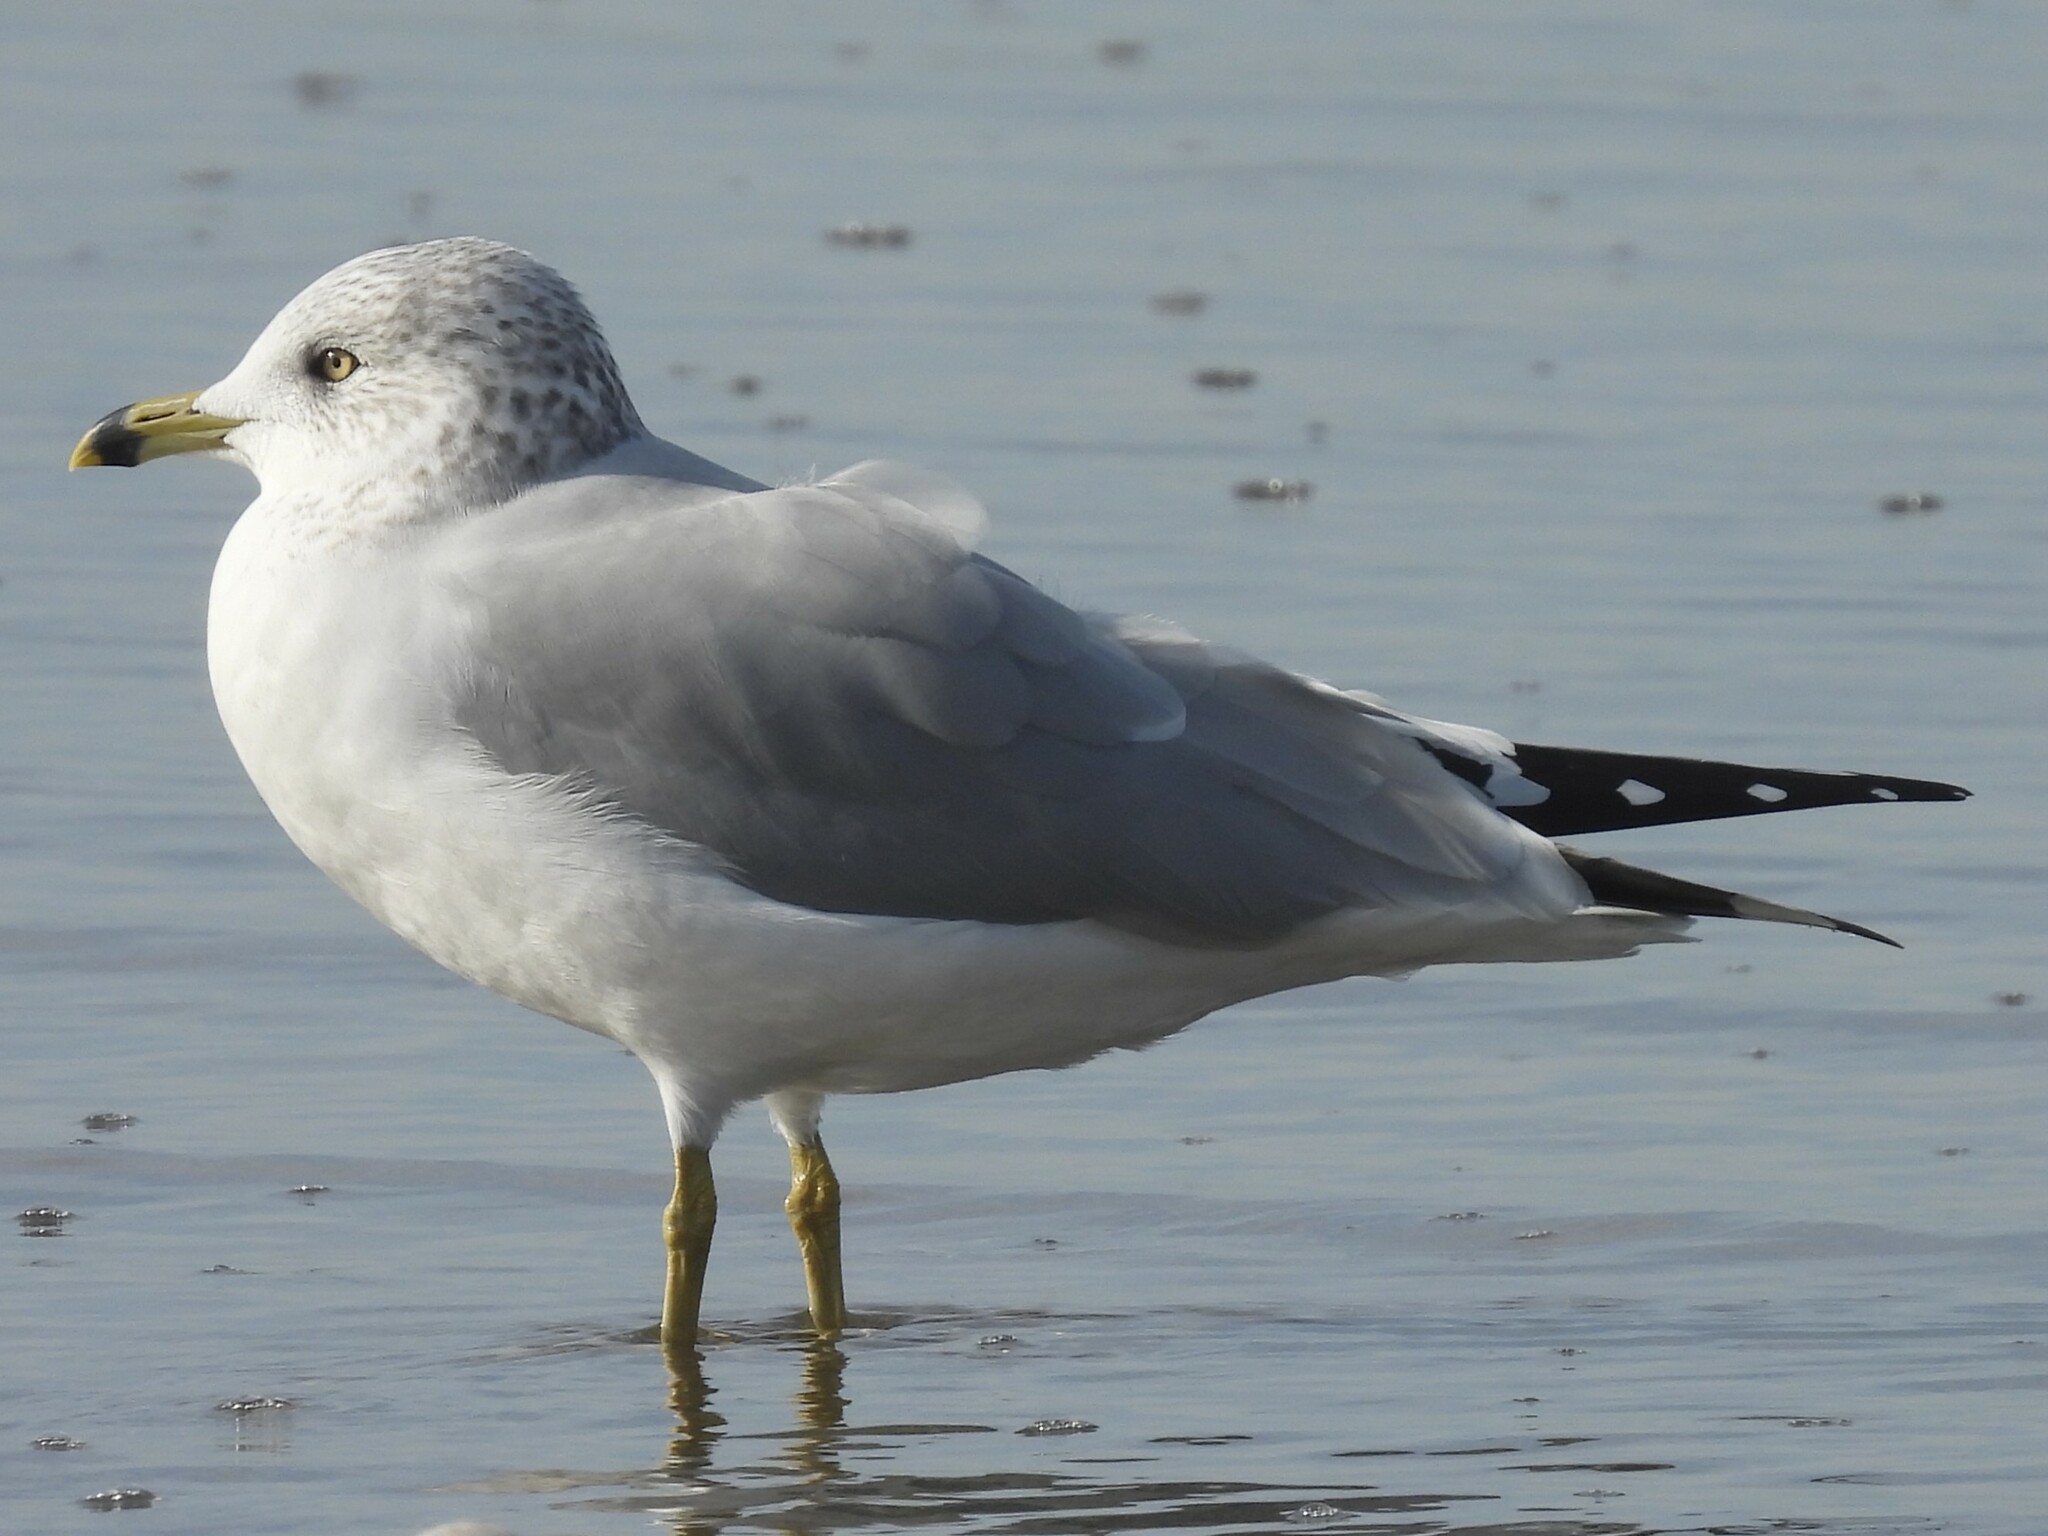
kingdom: Animalia
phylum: Chordata
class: Aves
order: Charadriiformes
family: Laridae
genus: Larus
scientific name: Larus delawarensis
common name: Ring-billed gull
